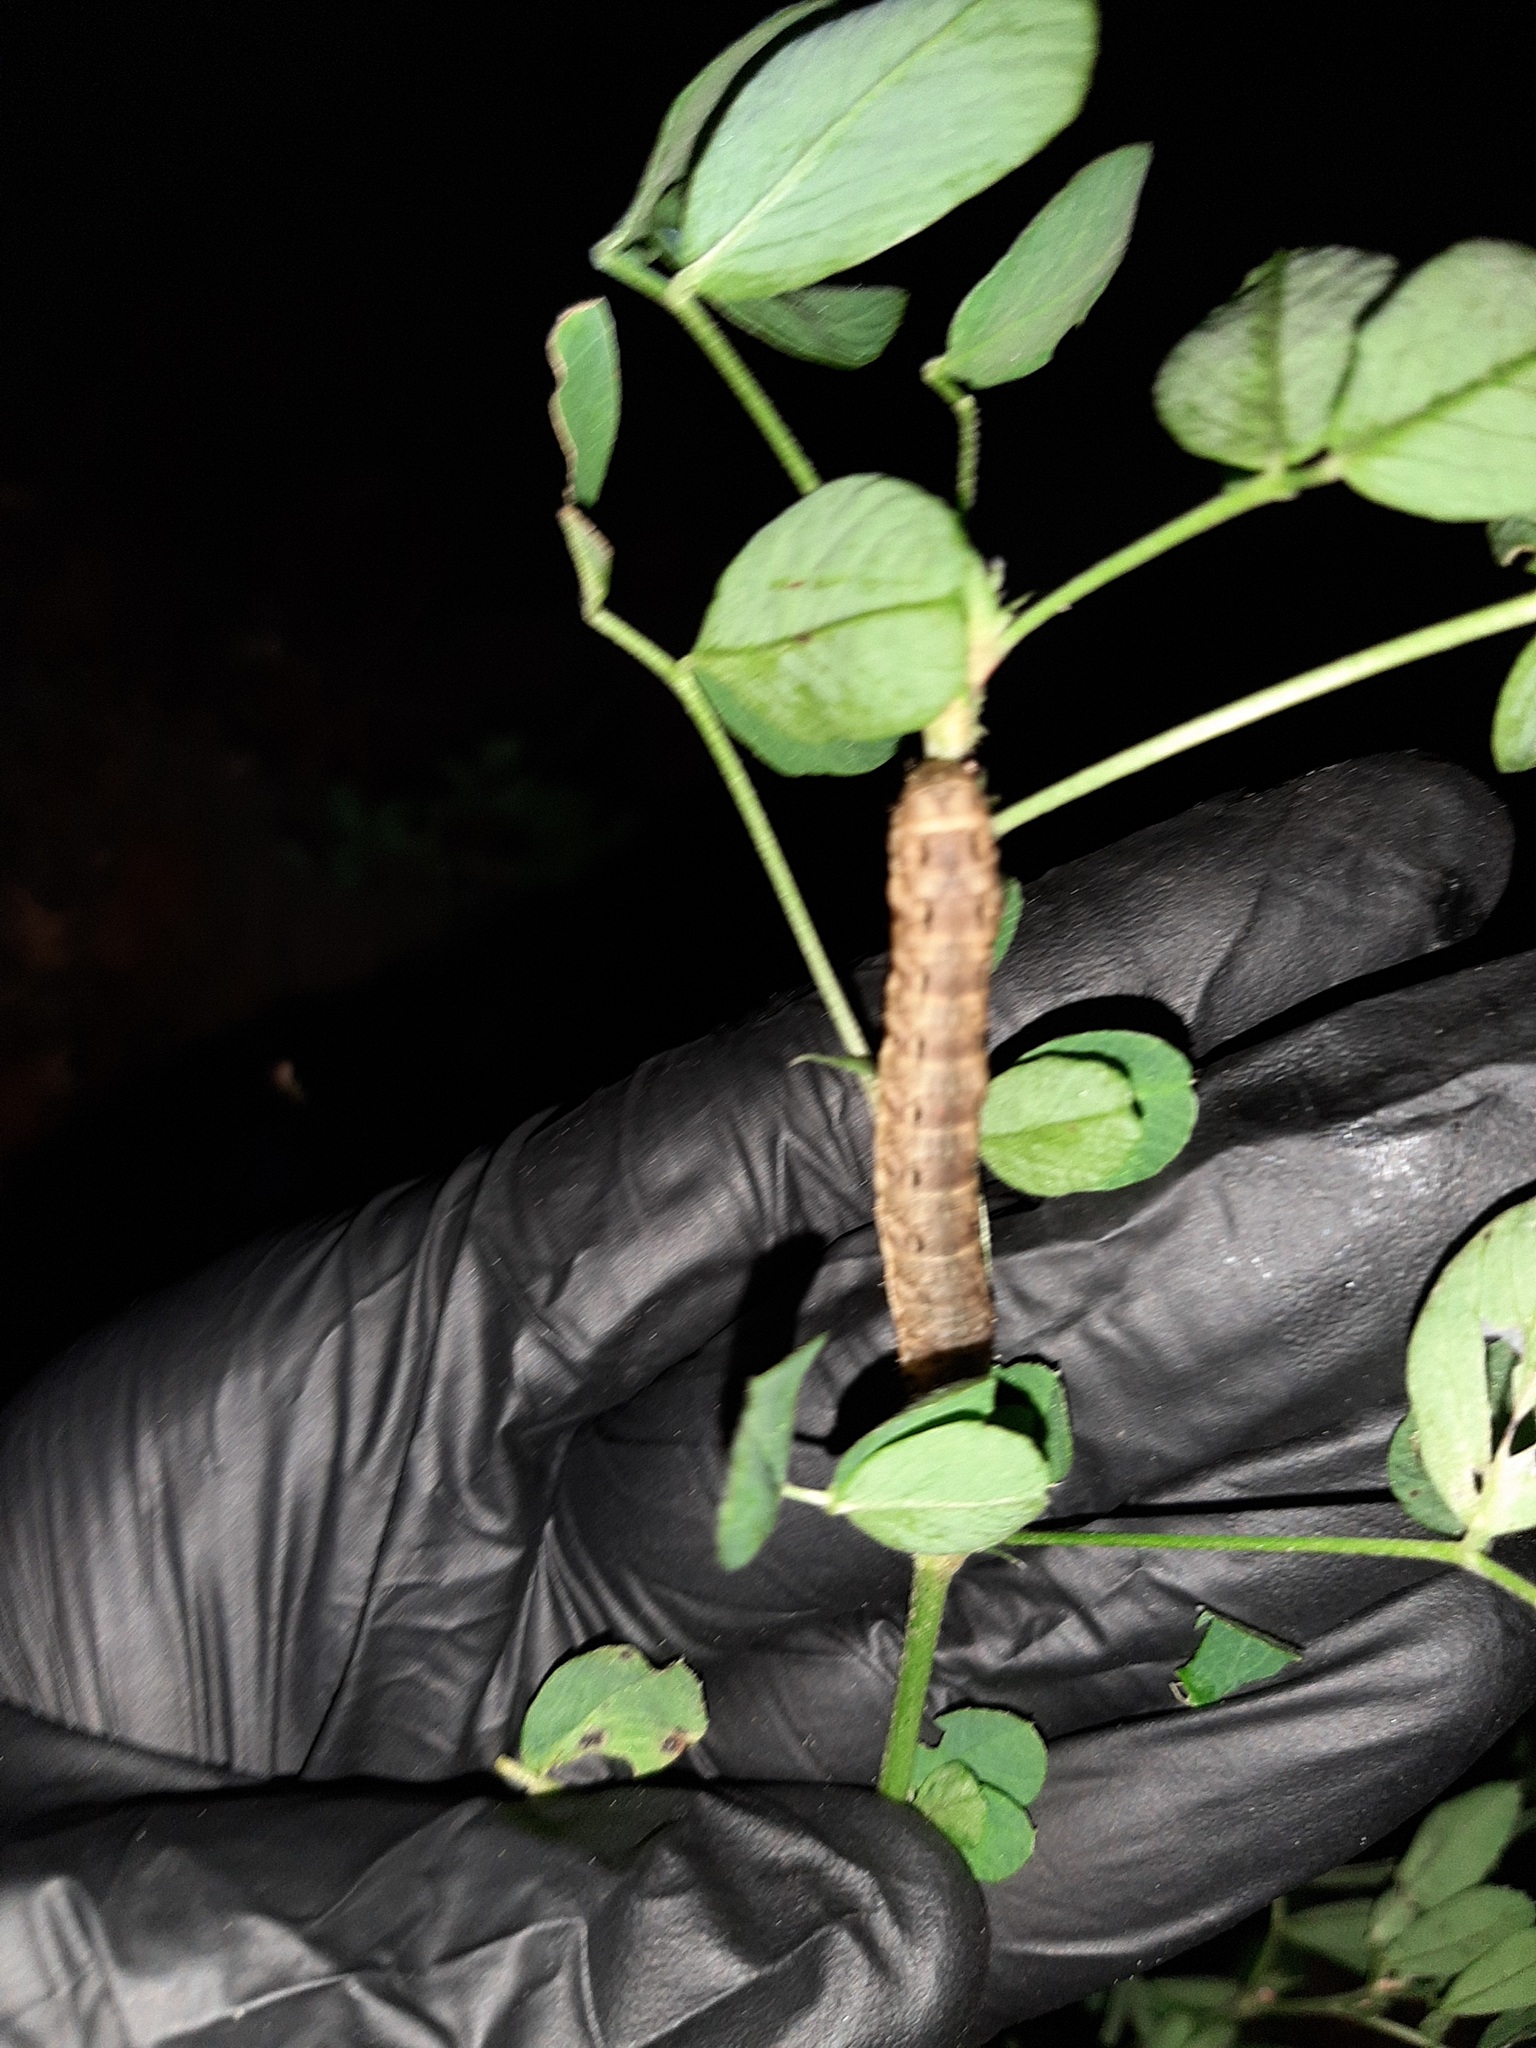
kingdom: Animalia
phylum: Arthropoda
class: Insecta
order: Lepidoptera
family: Noctuidae
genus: Noctua
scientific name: Noctua pronuba
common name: Large yellow underwing
